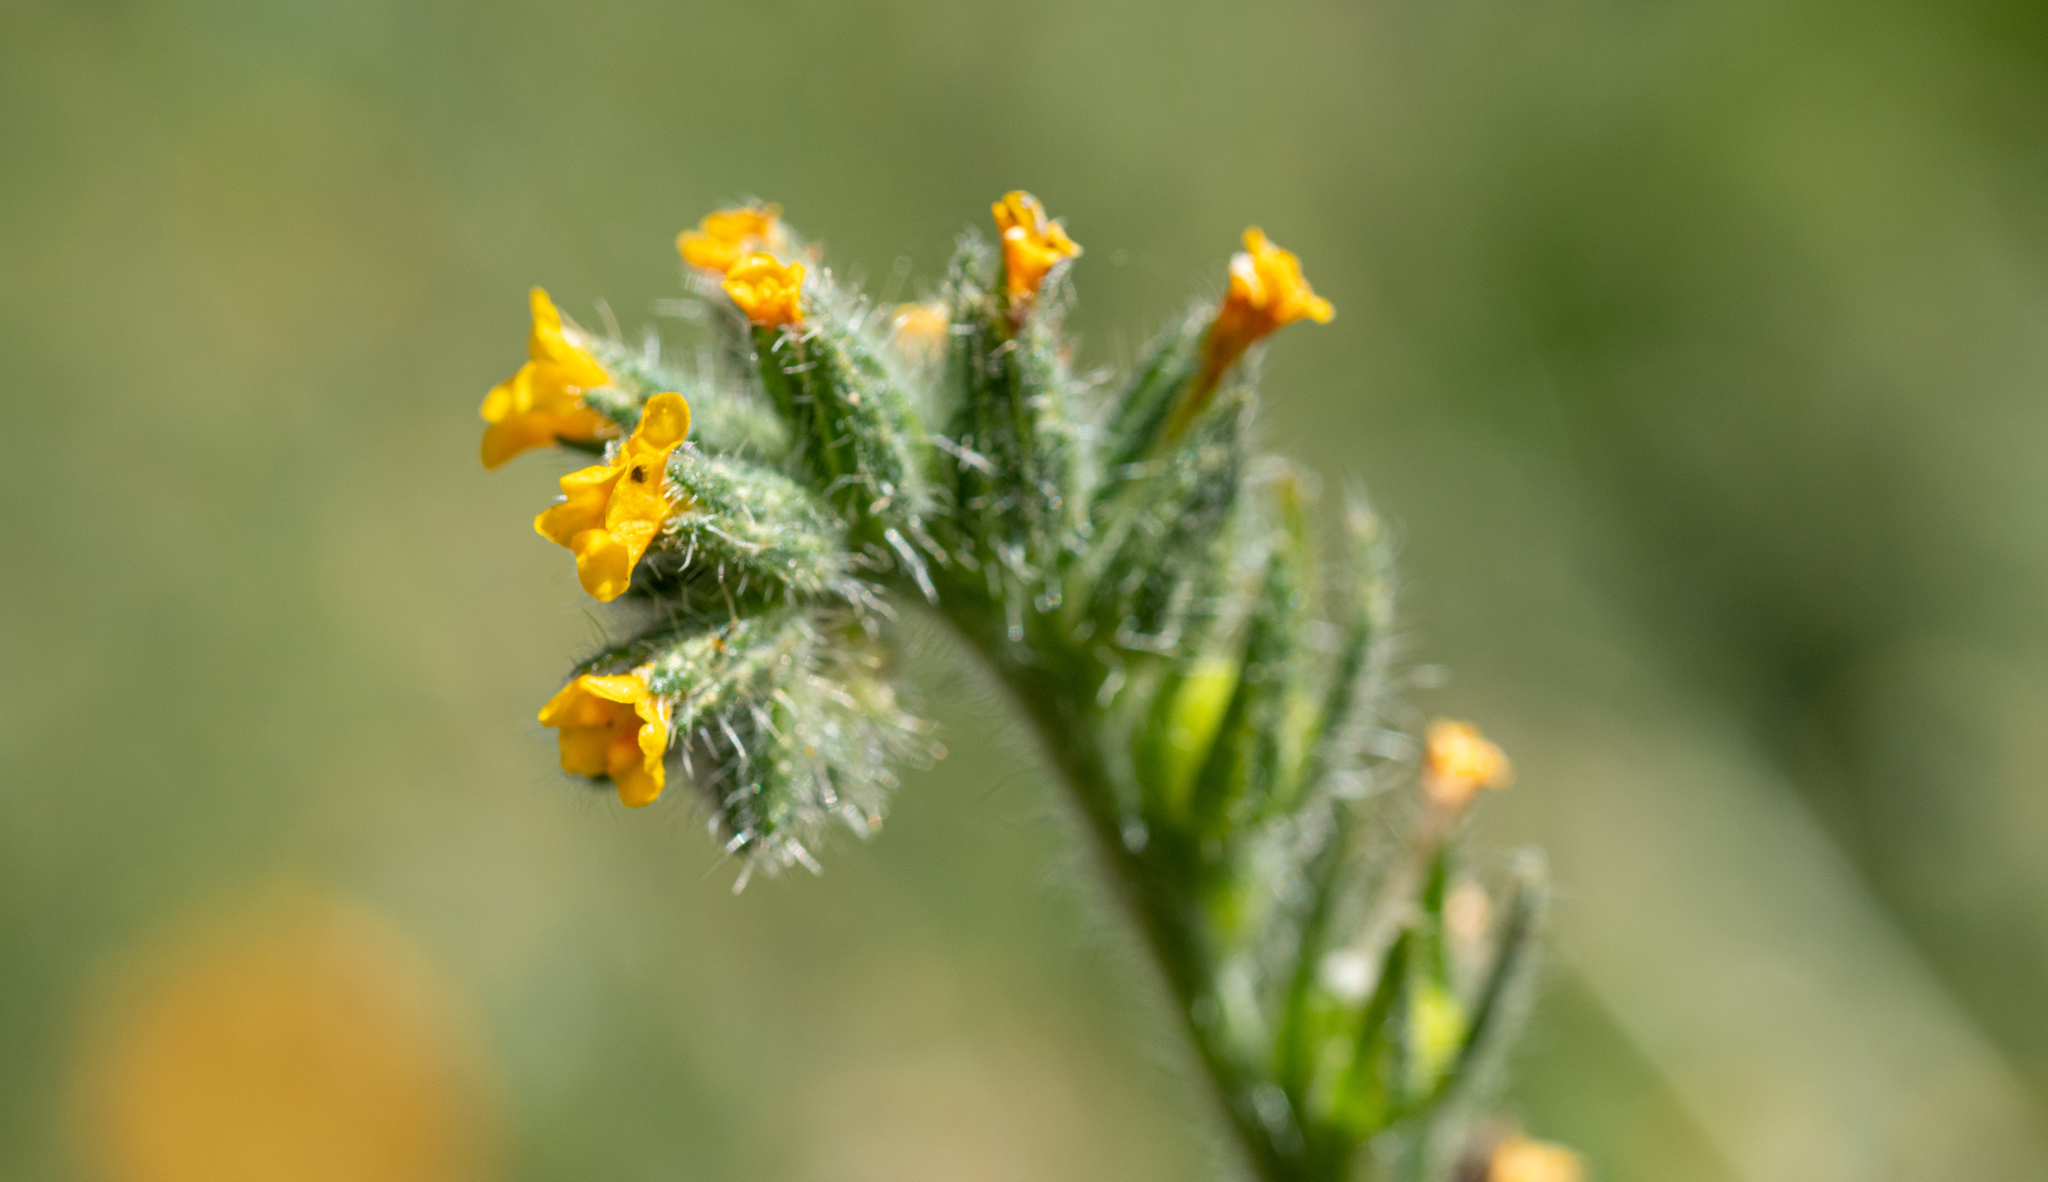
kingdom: Plantae
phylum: Tracheophyta
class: Magnoliopsida
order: Boraginales
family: Boraginaceae
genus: Amsinckia
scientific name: Amsinckia menziesii
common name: Menzies' fiddleneck
